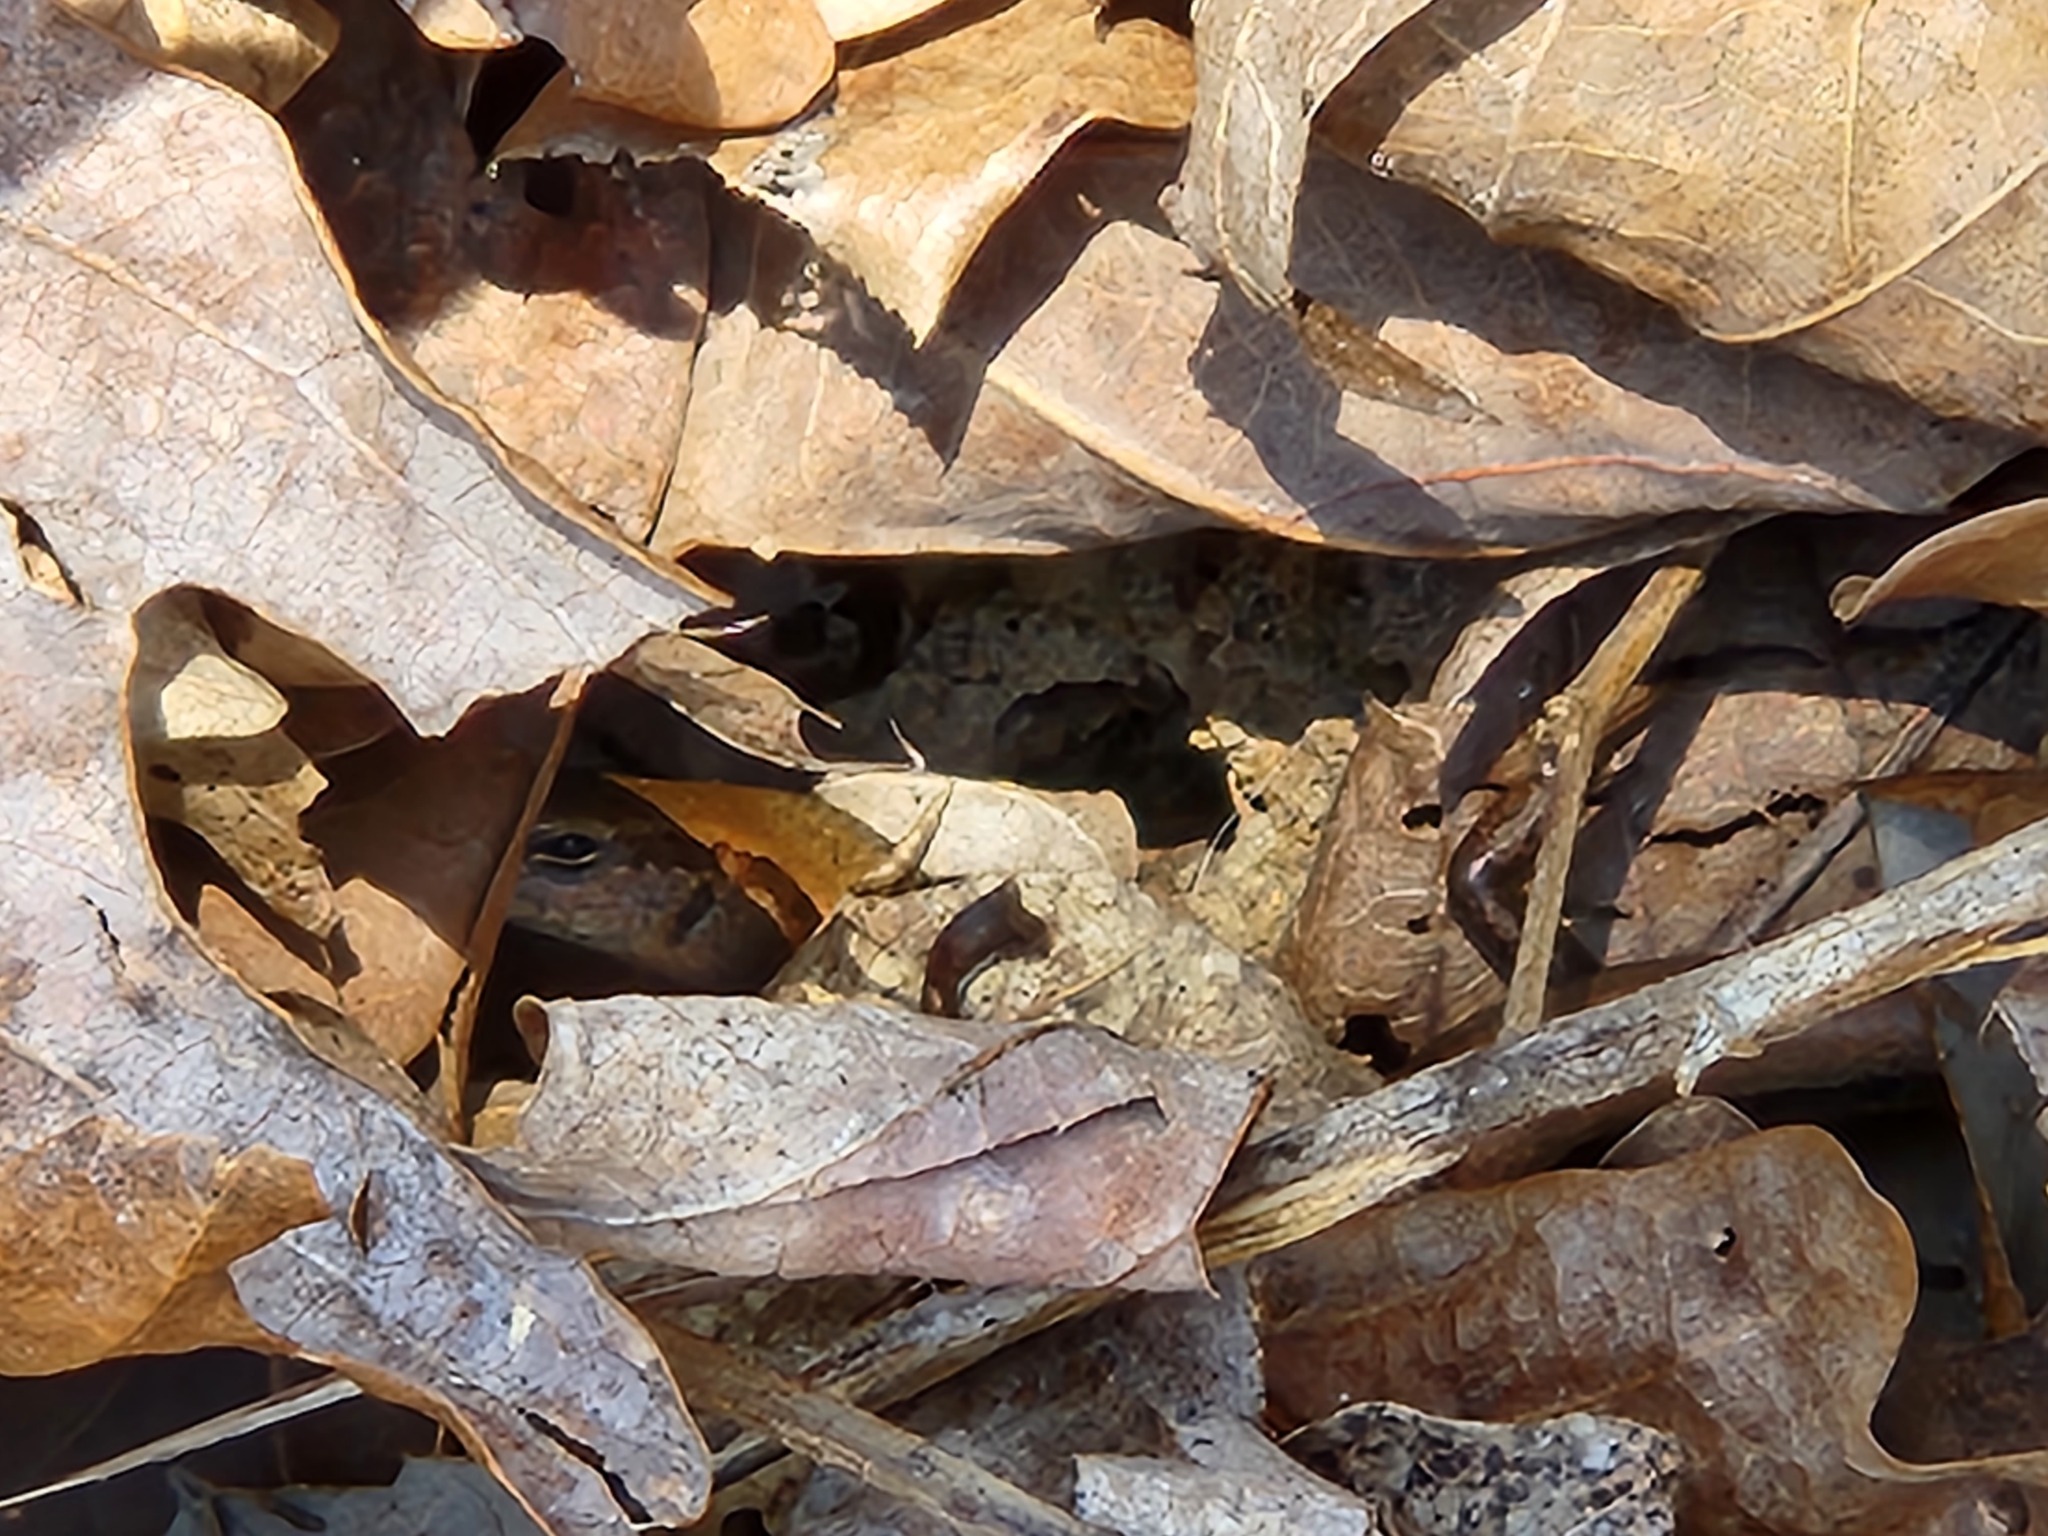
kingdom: Animalia
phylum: Chordata
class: Squamata
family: Scincidae
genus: Scincella
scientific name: Scincella lateralis
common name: Ground skink
